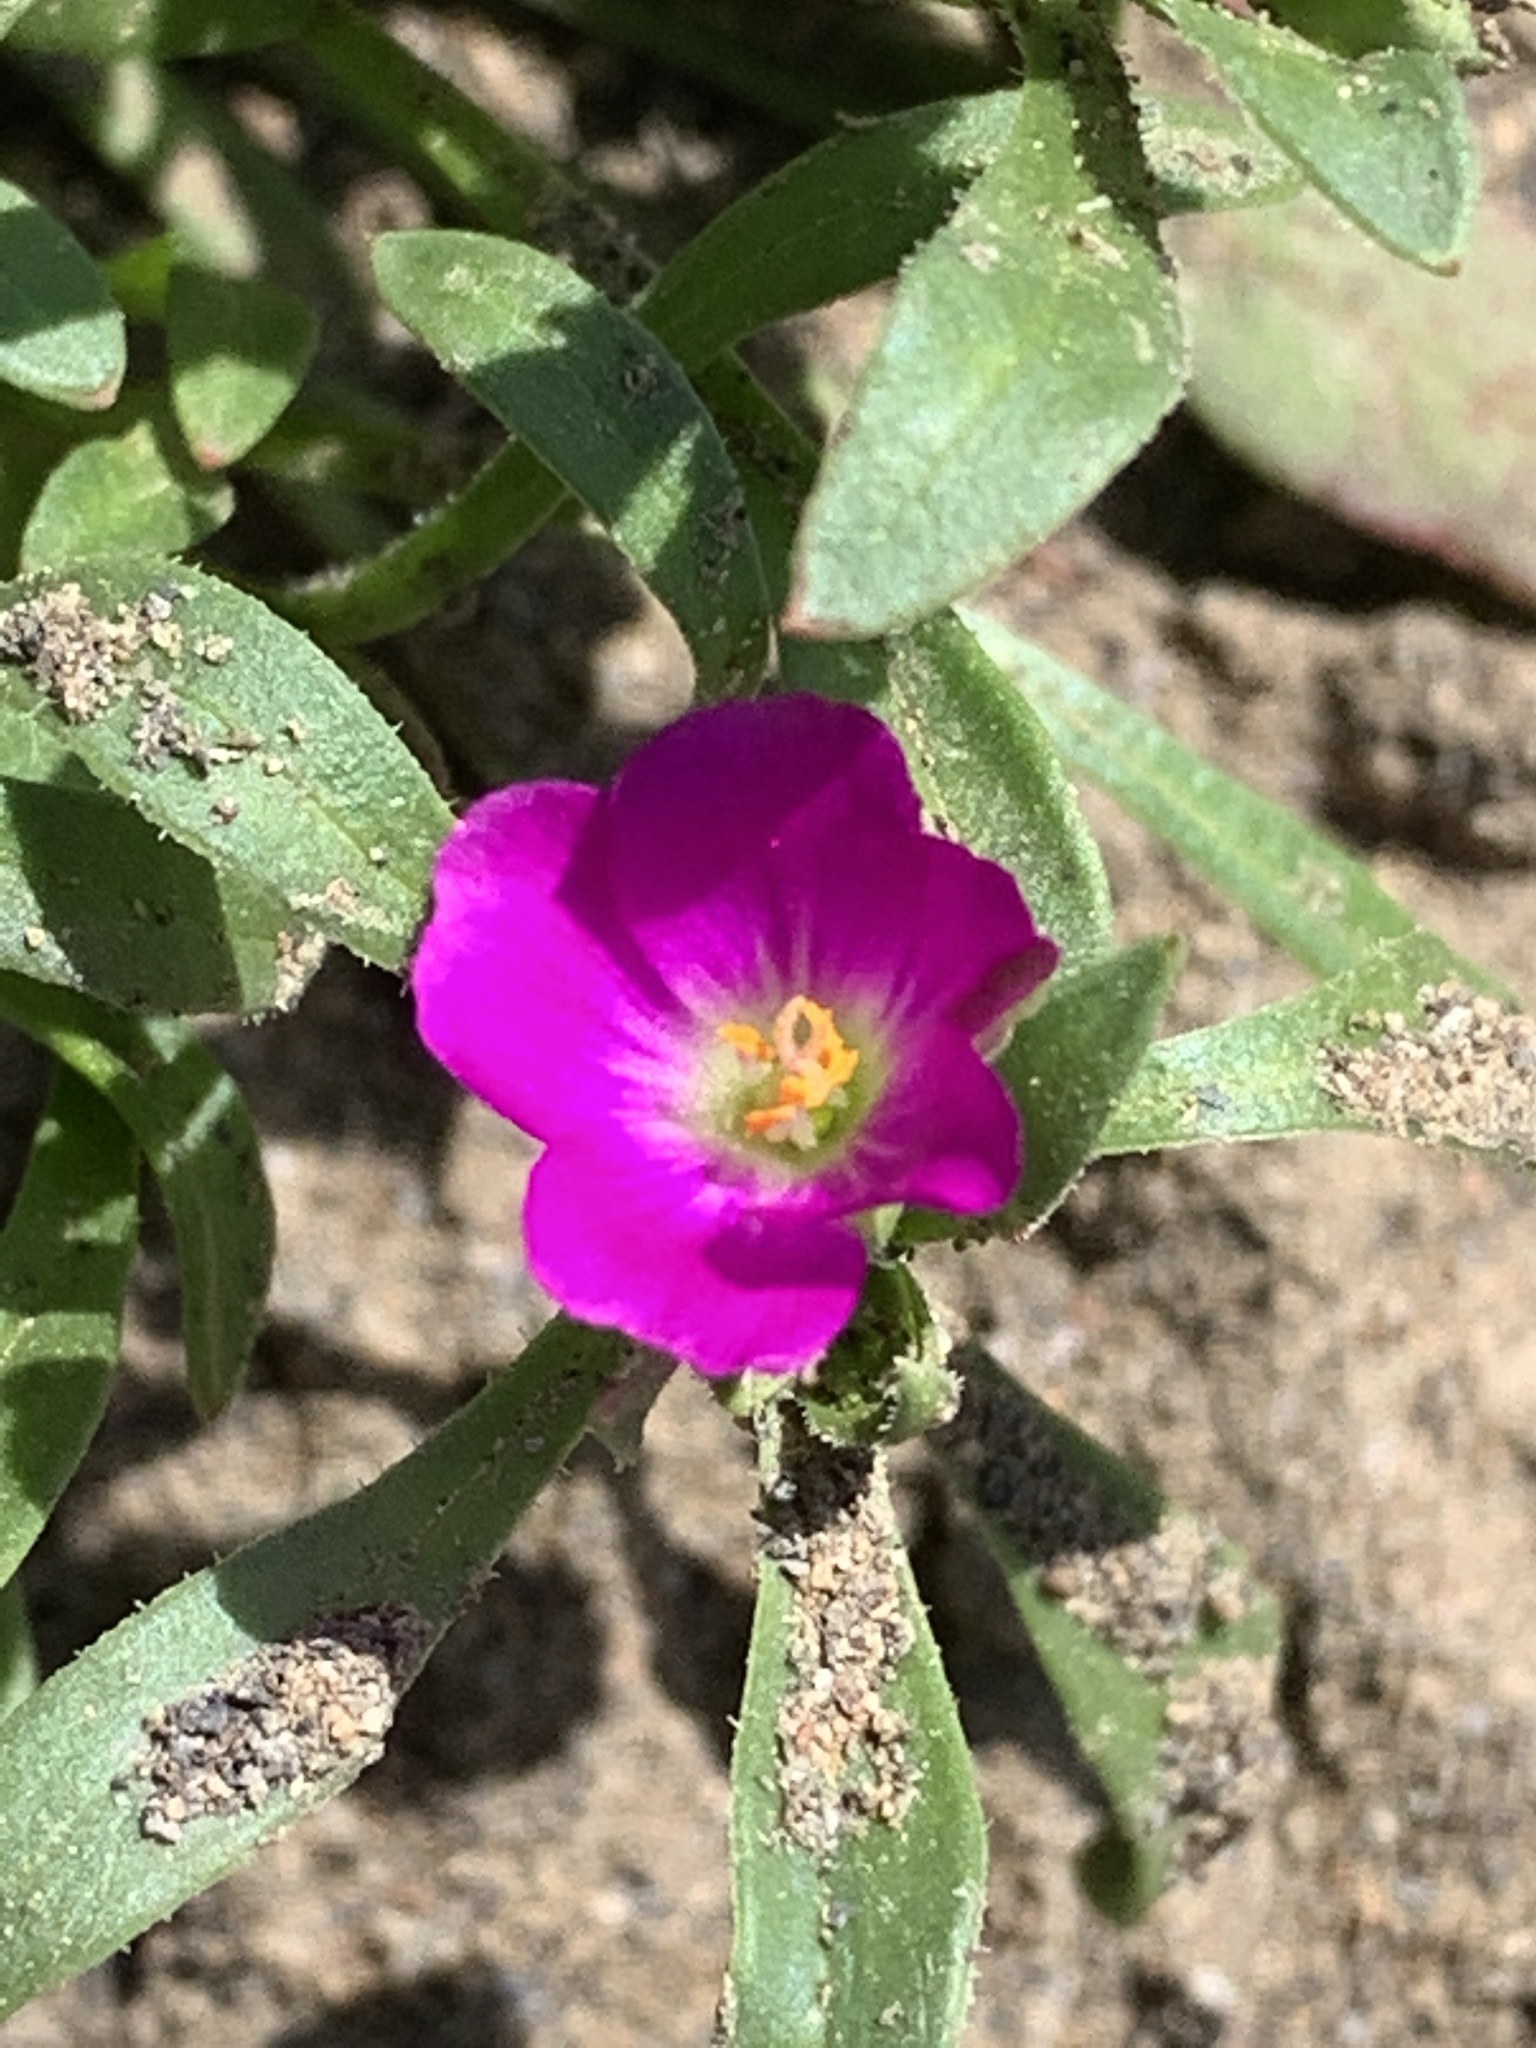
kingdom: Plantae
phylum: Tracheophyta
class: Magnoliopsida
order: Caryophyllales
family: Montiaceae
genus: Calandrinia
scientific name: Calandrinia menziesii
